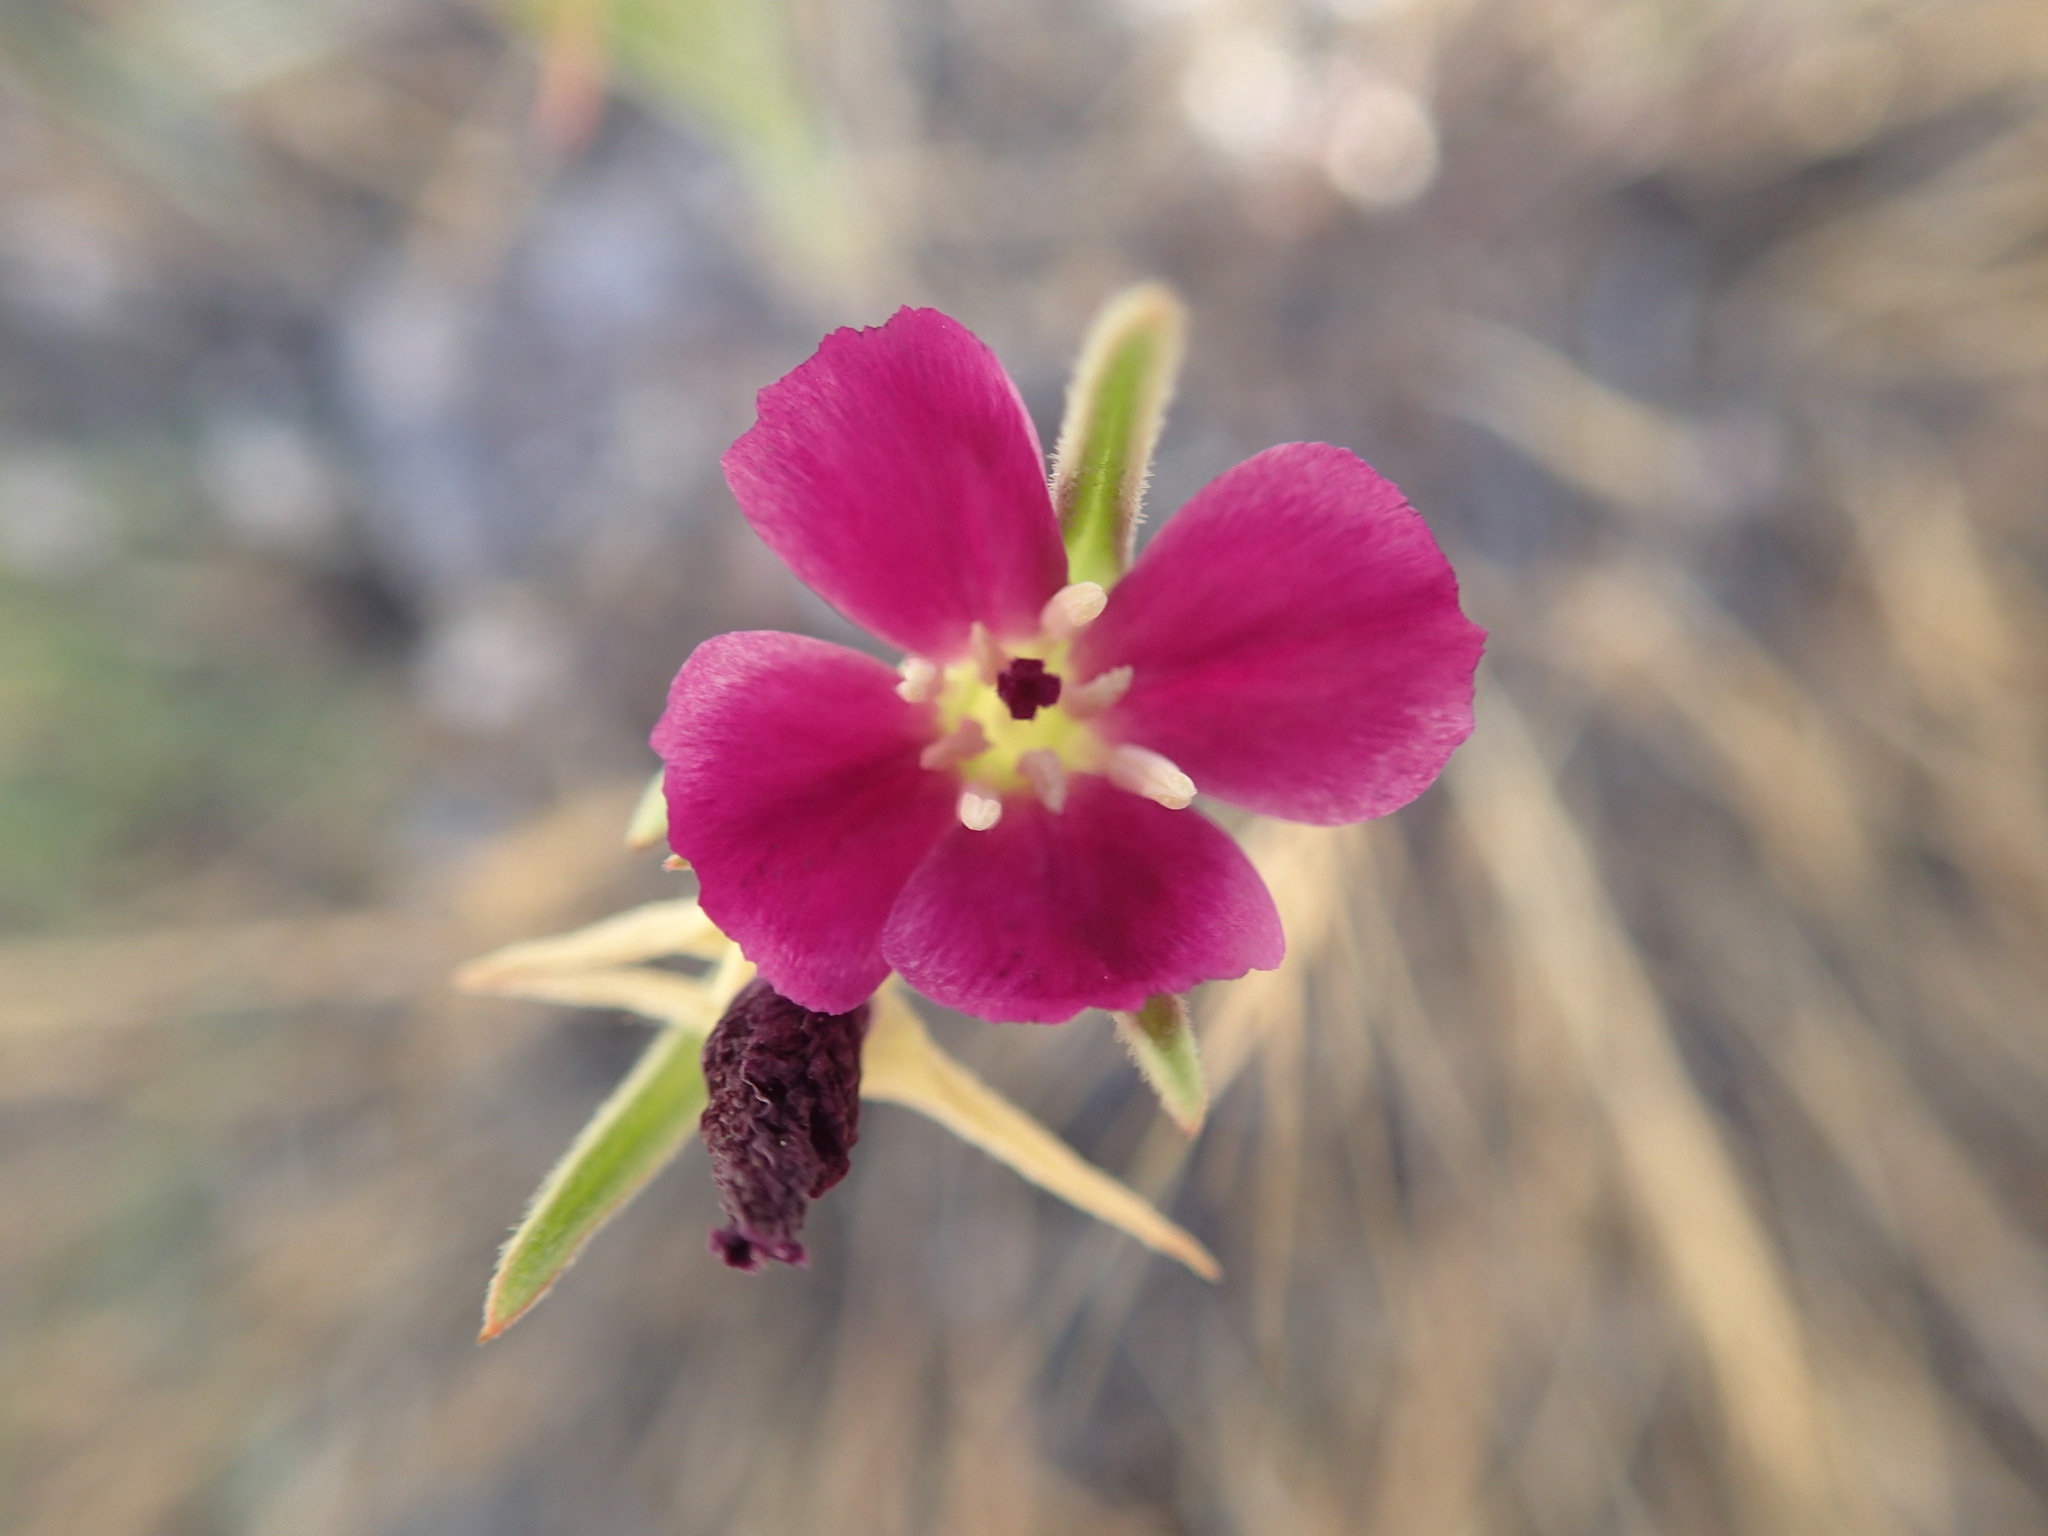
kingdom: Plantae
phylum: Tracheophyta
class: Magnoliopsida
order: Myrtales
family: Onagraceae
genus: Clarkia
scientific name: Clarkia purpurea
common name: Purple clarkia
